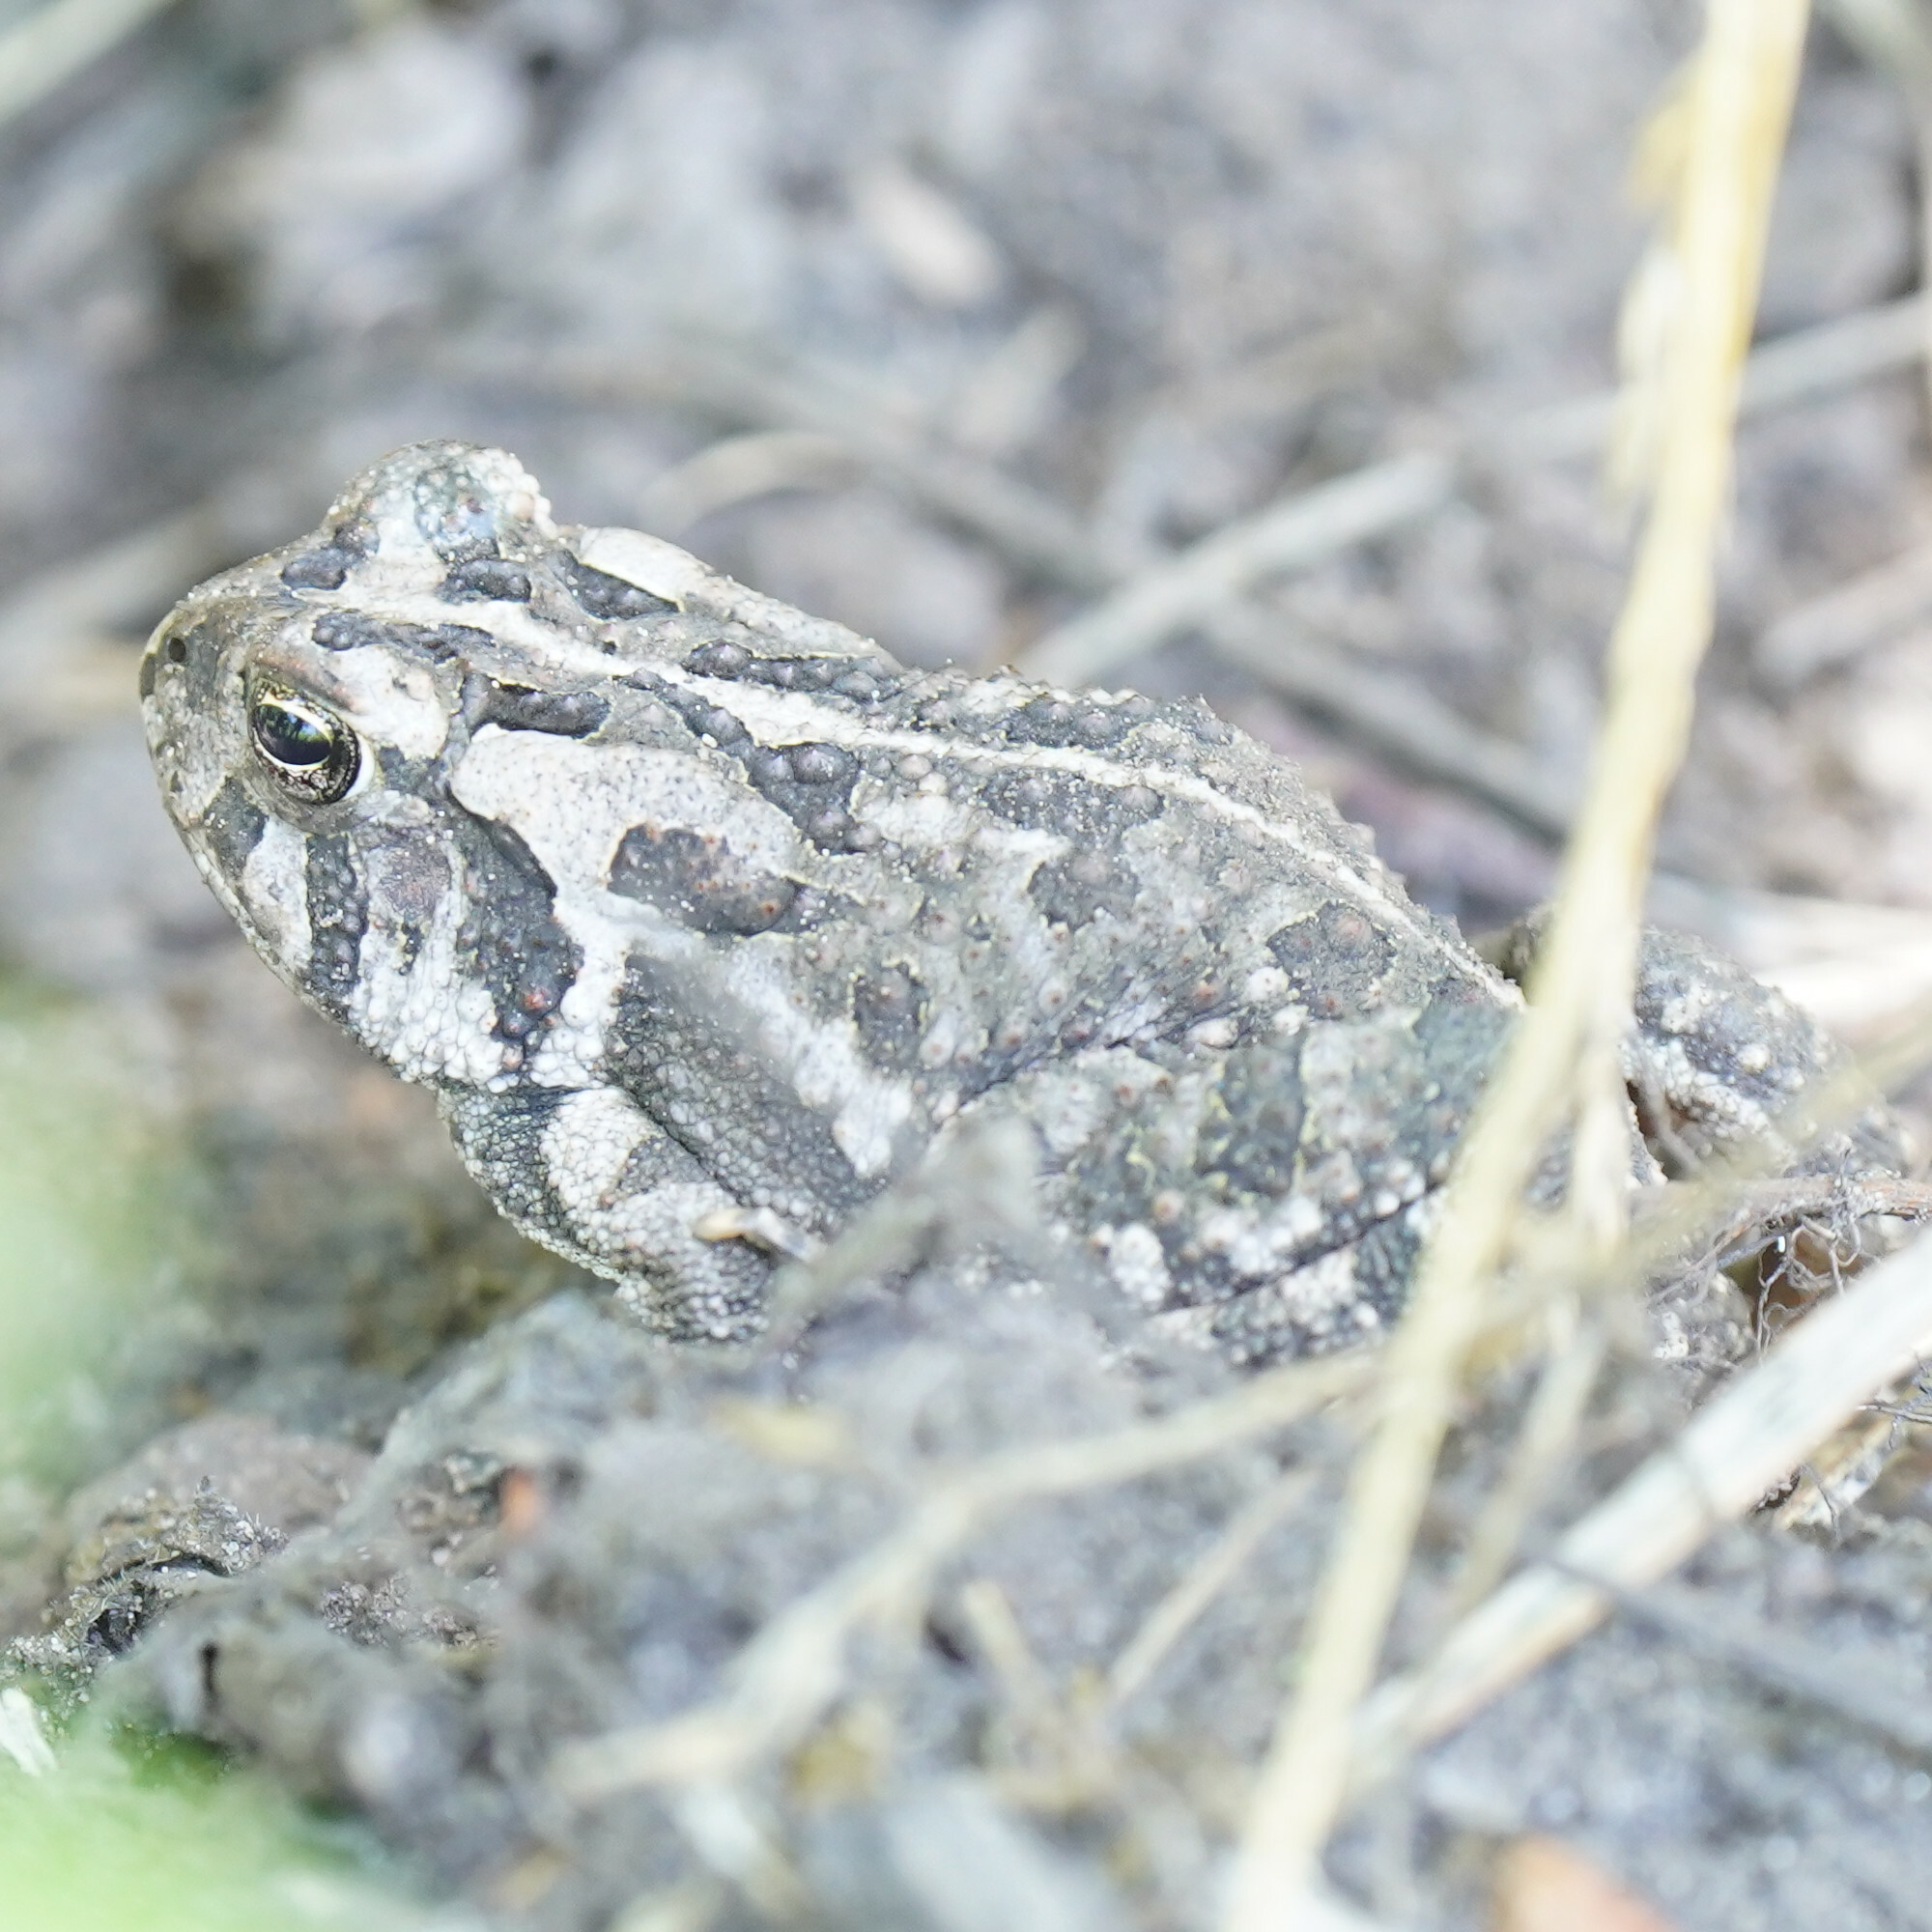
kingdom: Animalia
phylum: Chordata
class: Amphibia
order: Anura
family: Bufonidae
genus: Anaxyrus
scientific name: Anaxyrus fowleri
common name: Fowler's toad
